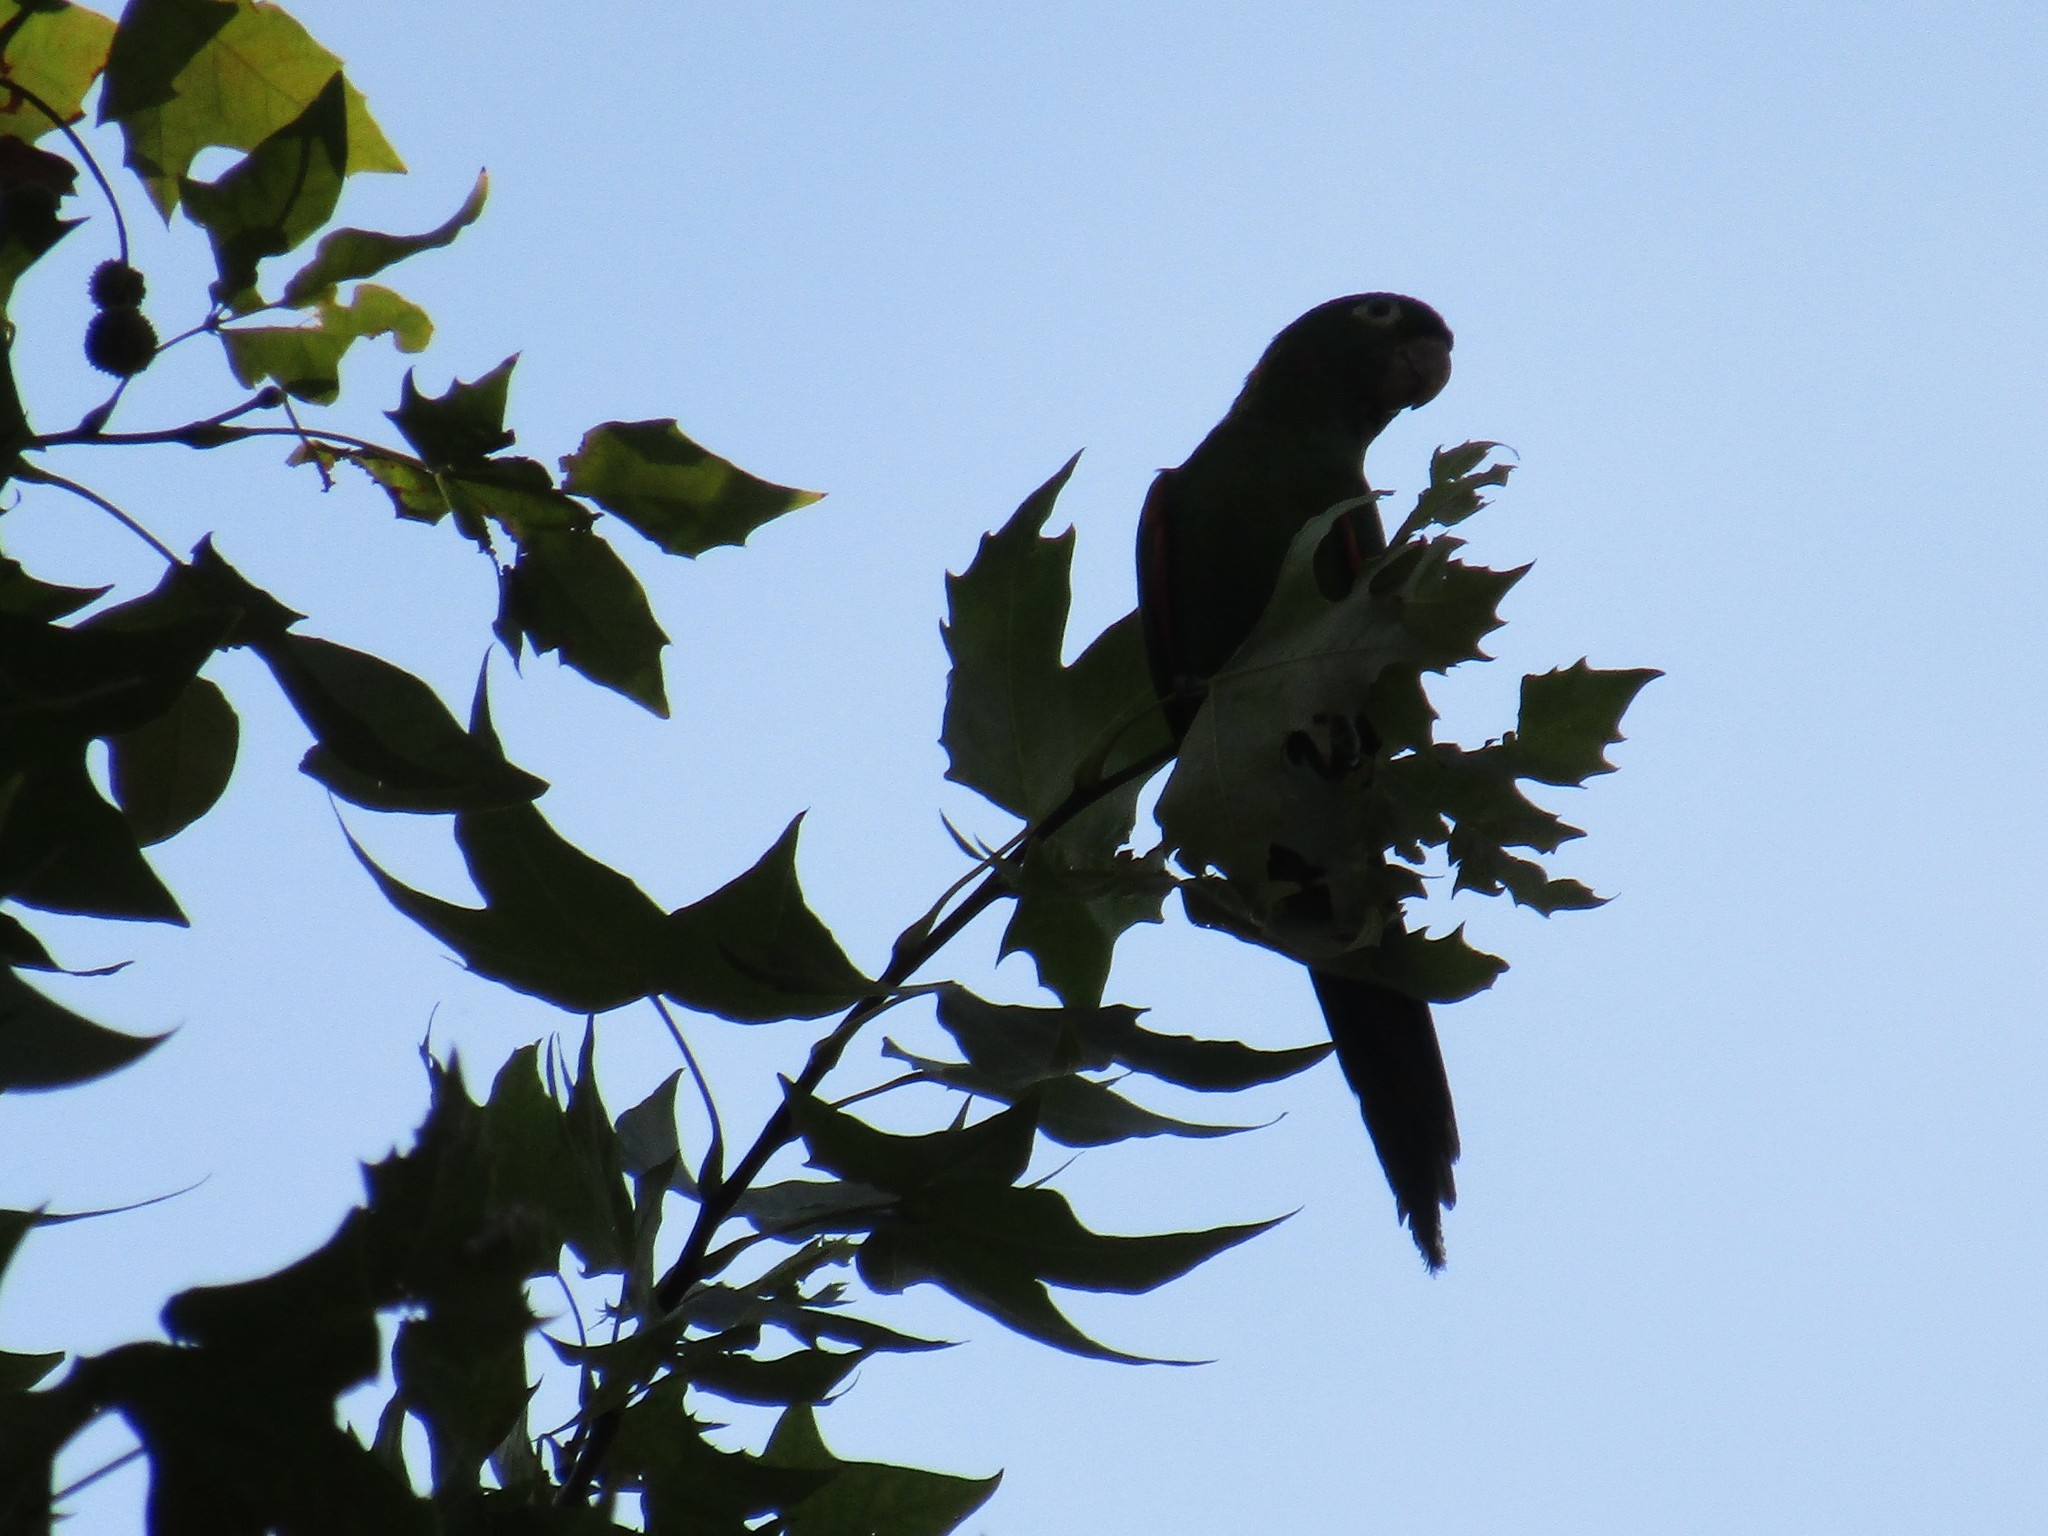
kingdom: Animalia
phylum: Chordata
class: Aves
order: Psittaciformes
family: Psittacidae
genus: Aratinga
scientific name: Aratinga leucophthalma
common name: White-eyed parakeet
